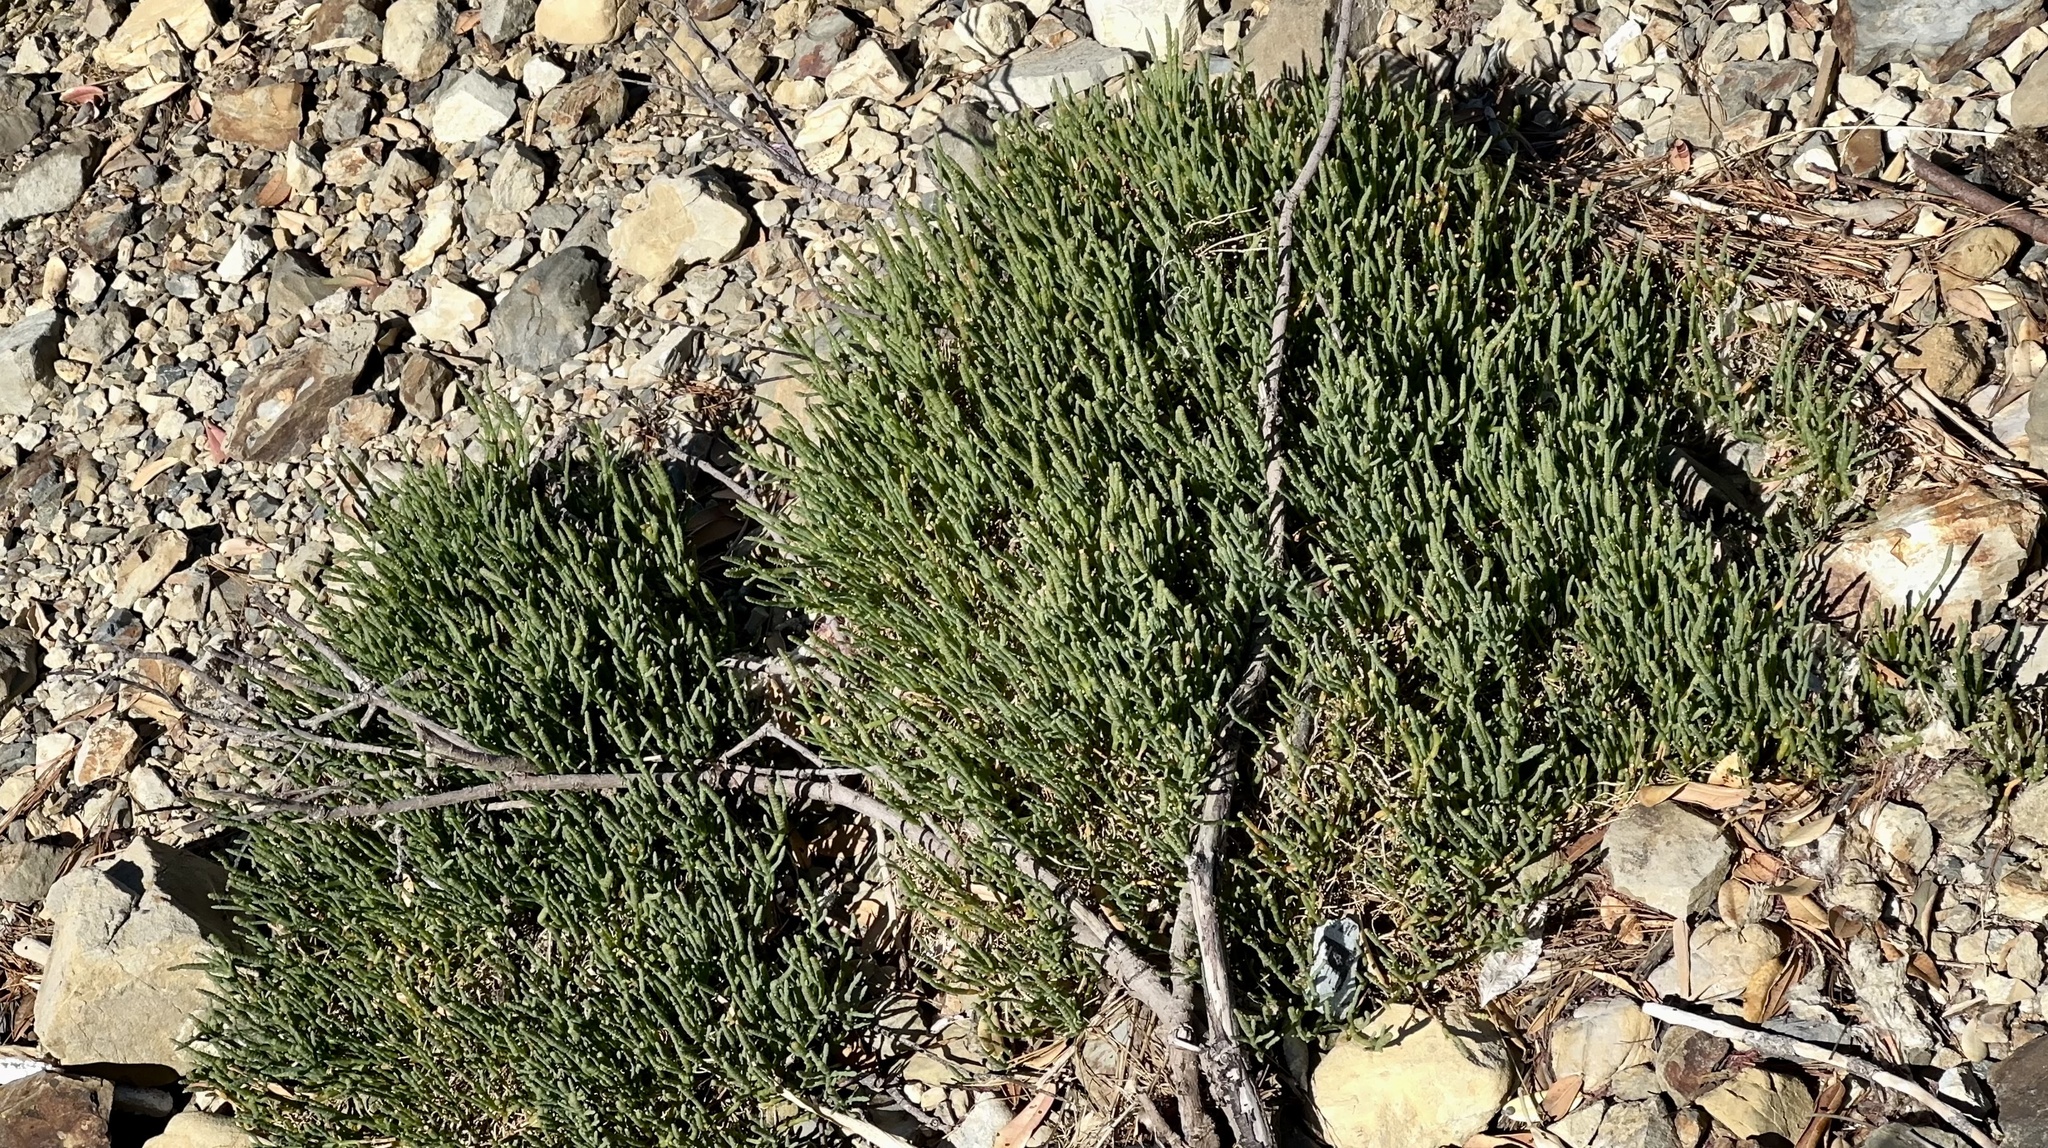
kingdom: Plantae
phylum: Tracheophyta
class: Magnoliopsida
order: Caryophyllales
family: Amaranthaceae
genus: Salicornia
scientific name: Salicornia quinqueflora
